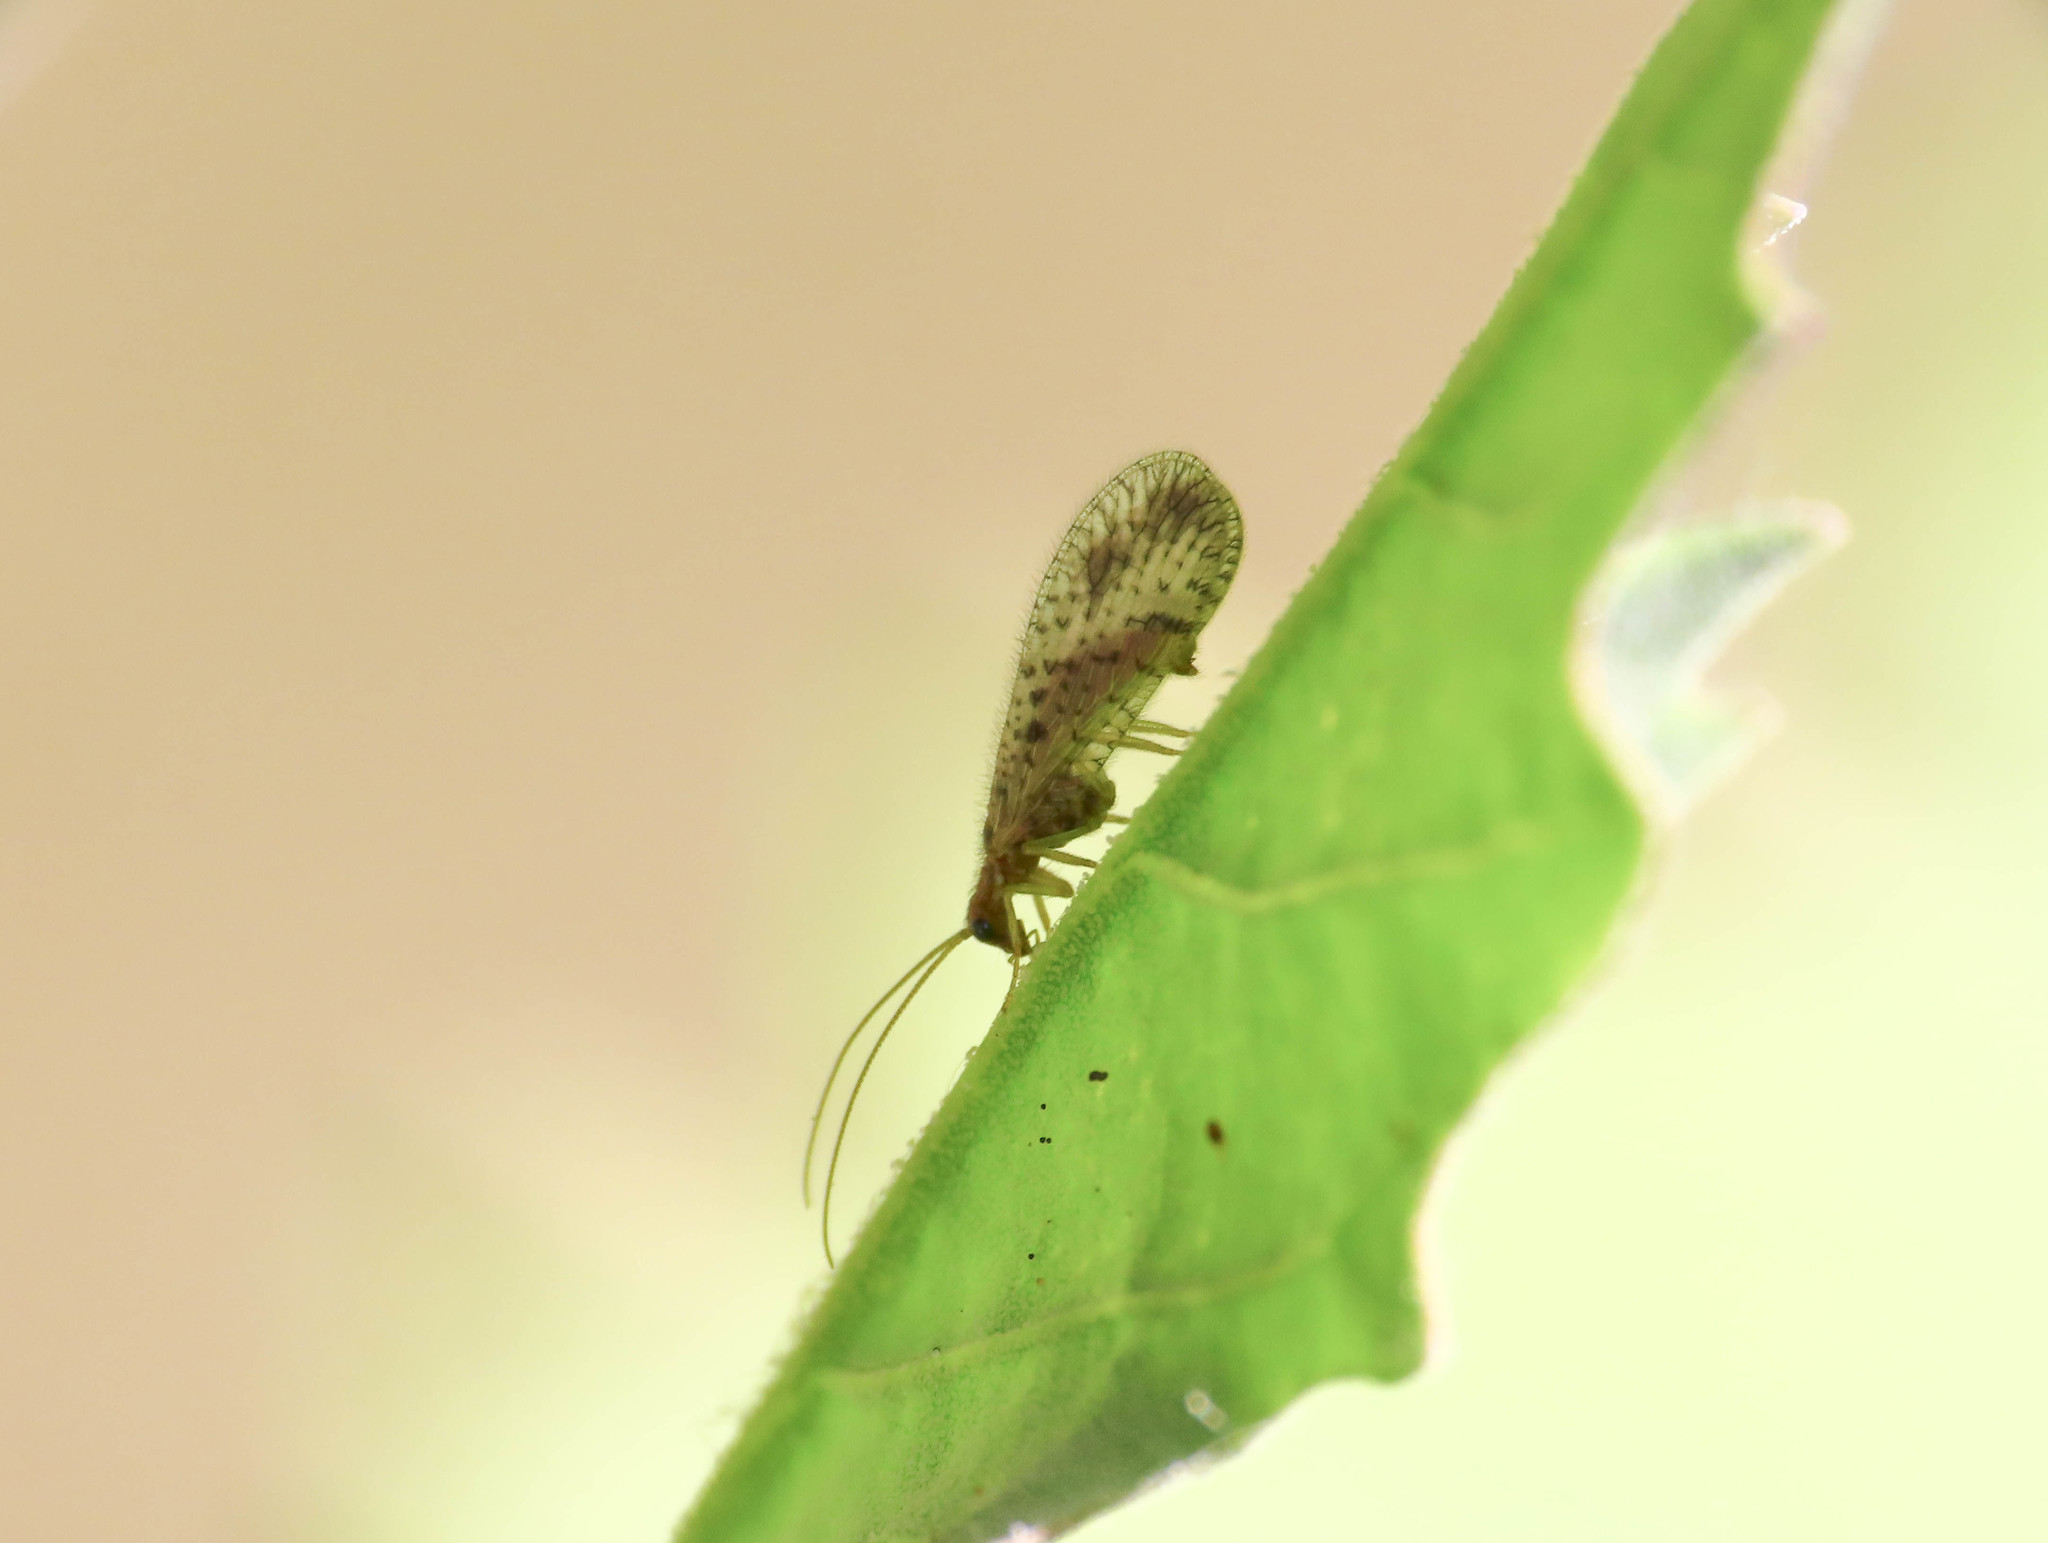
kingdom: Animalia
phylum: Arthropoda
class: Insecta
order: Neuroptera
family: Hemerobiidae
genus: Micromus
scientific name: Micromus variegatus
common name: Brown lacewing
